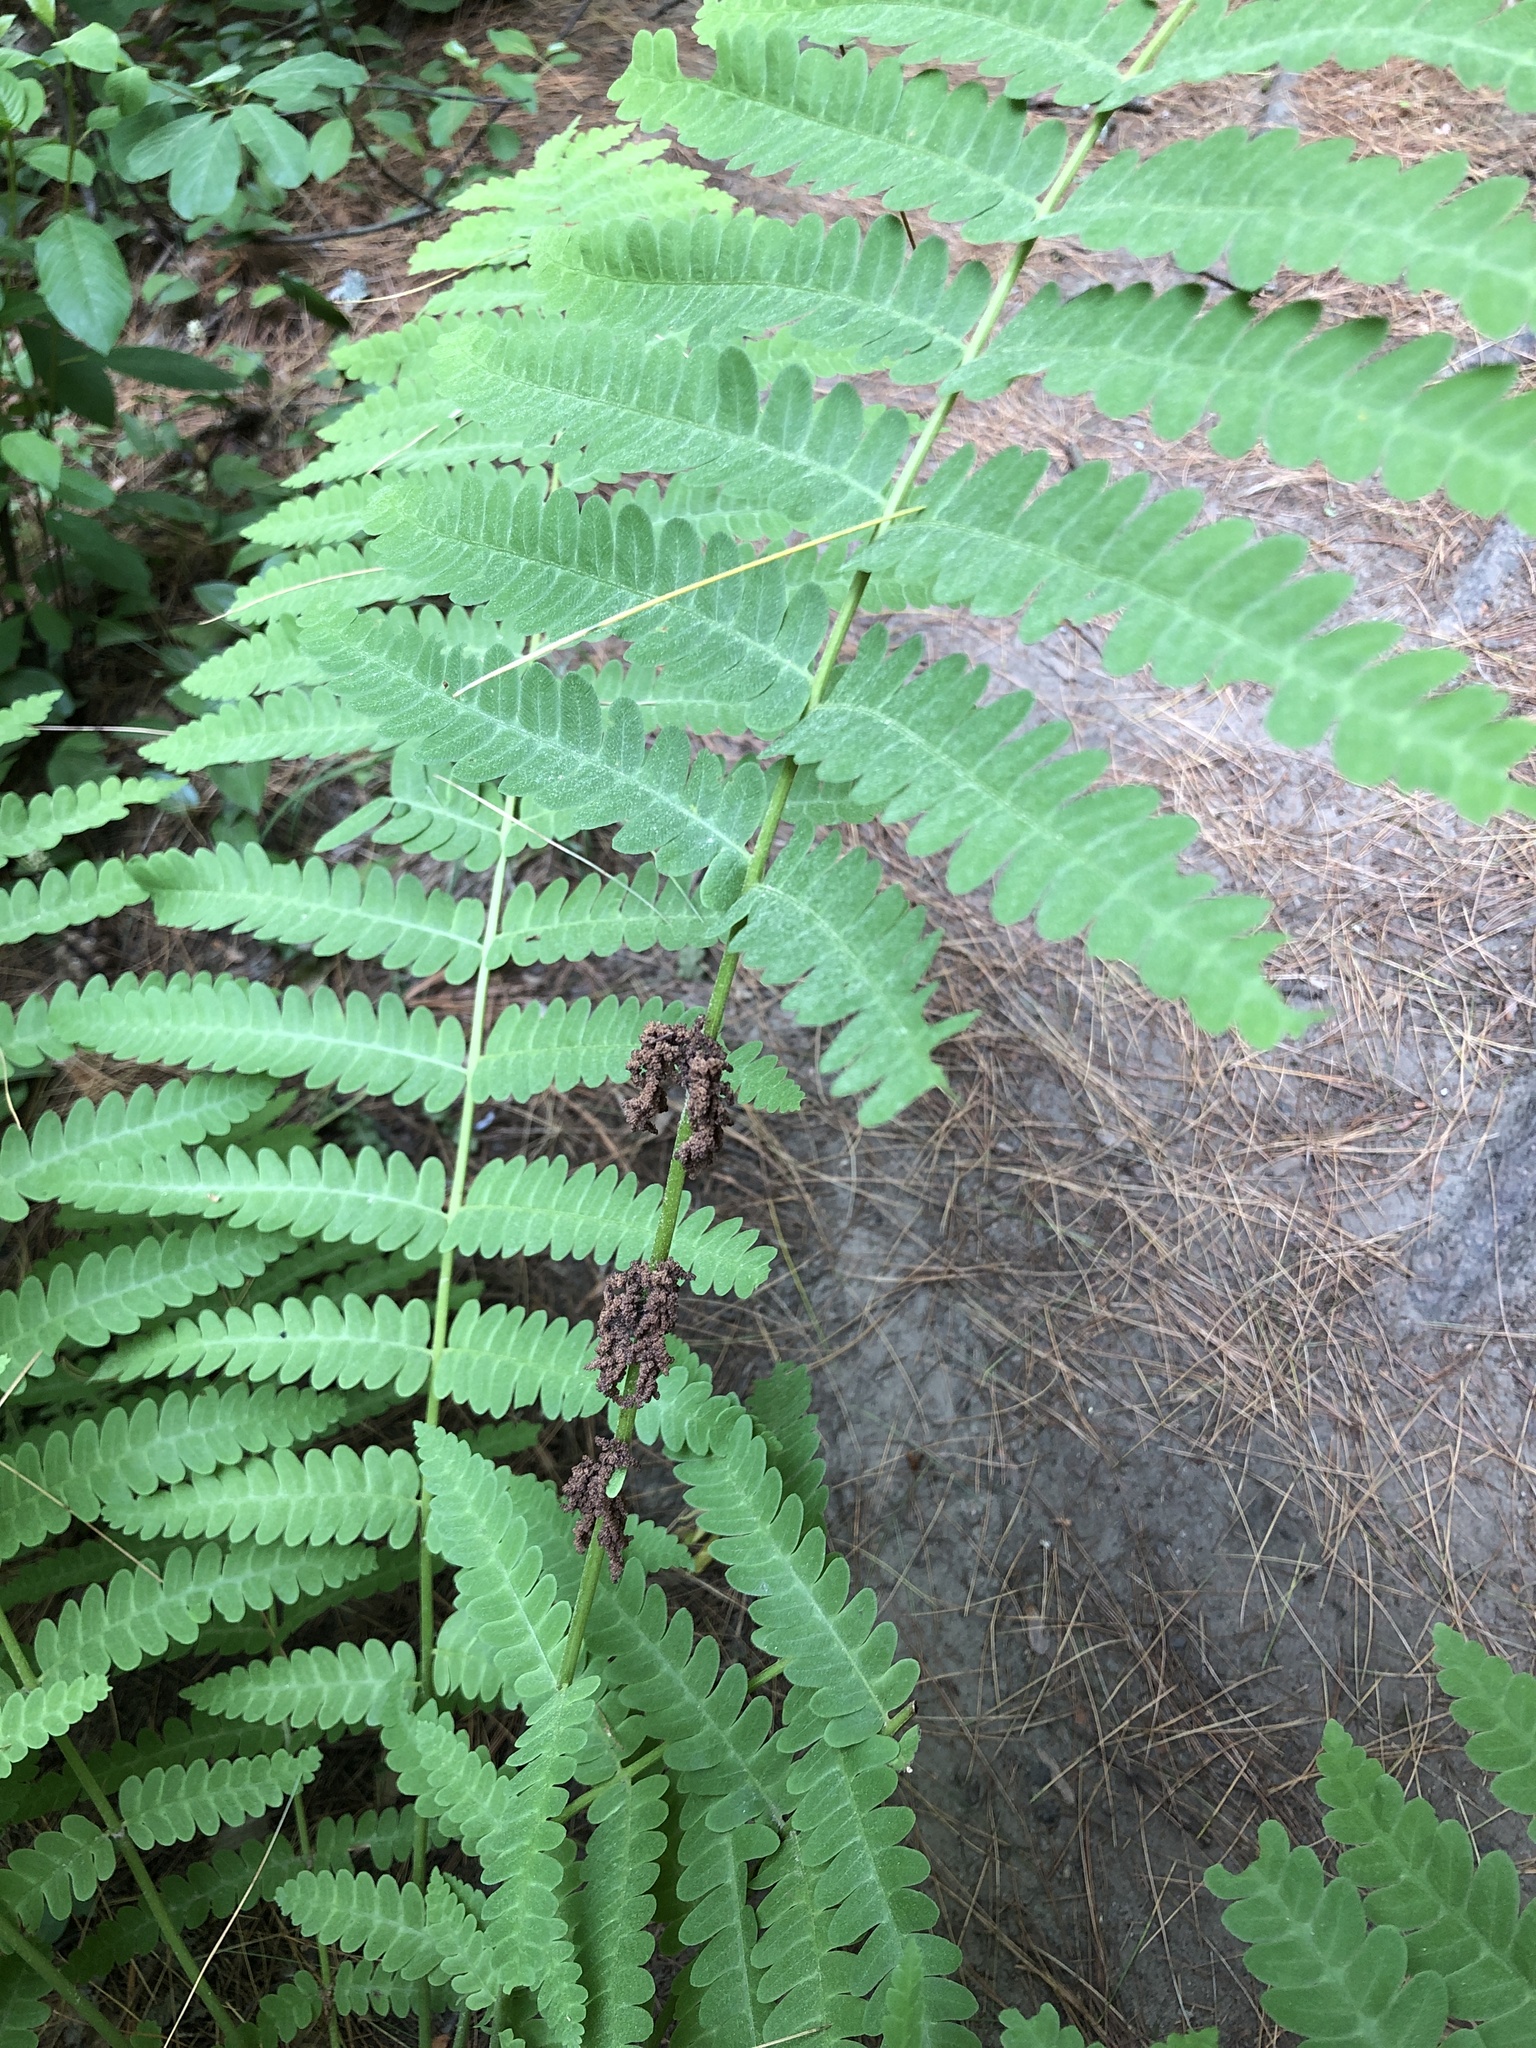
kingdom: Plantae
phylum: Tracheophyta
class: Polypodiopsida
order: Osmundales
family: Osmundaceae
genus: Claytosmunda
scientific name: Claytosmunda claytoniana
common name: Clayton's fern
